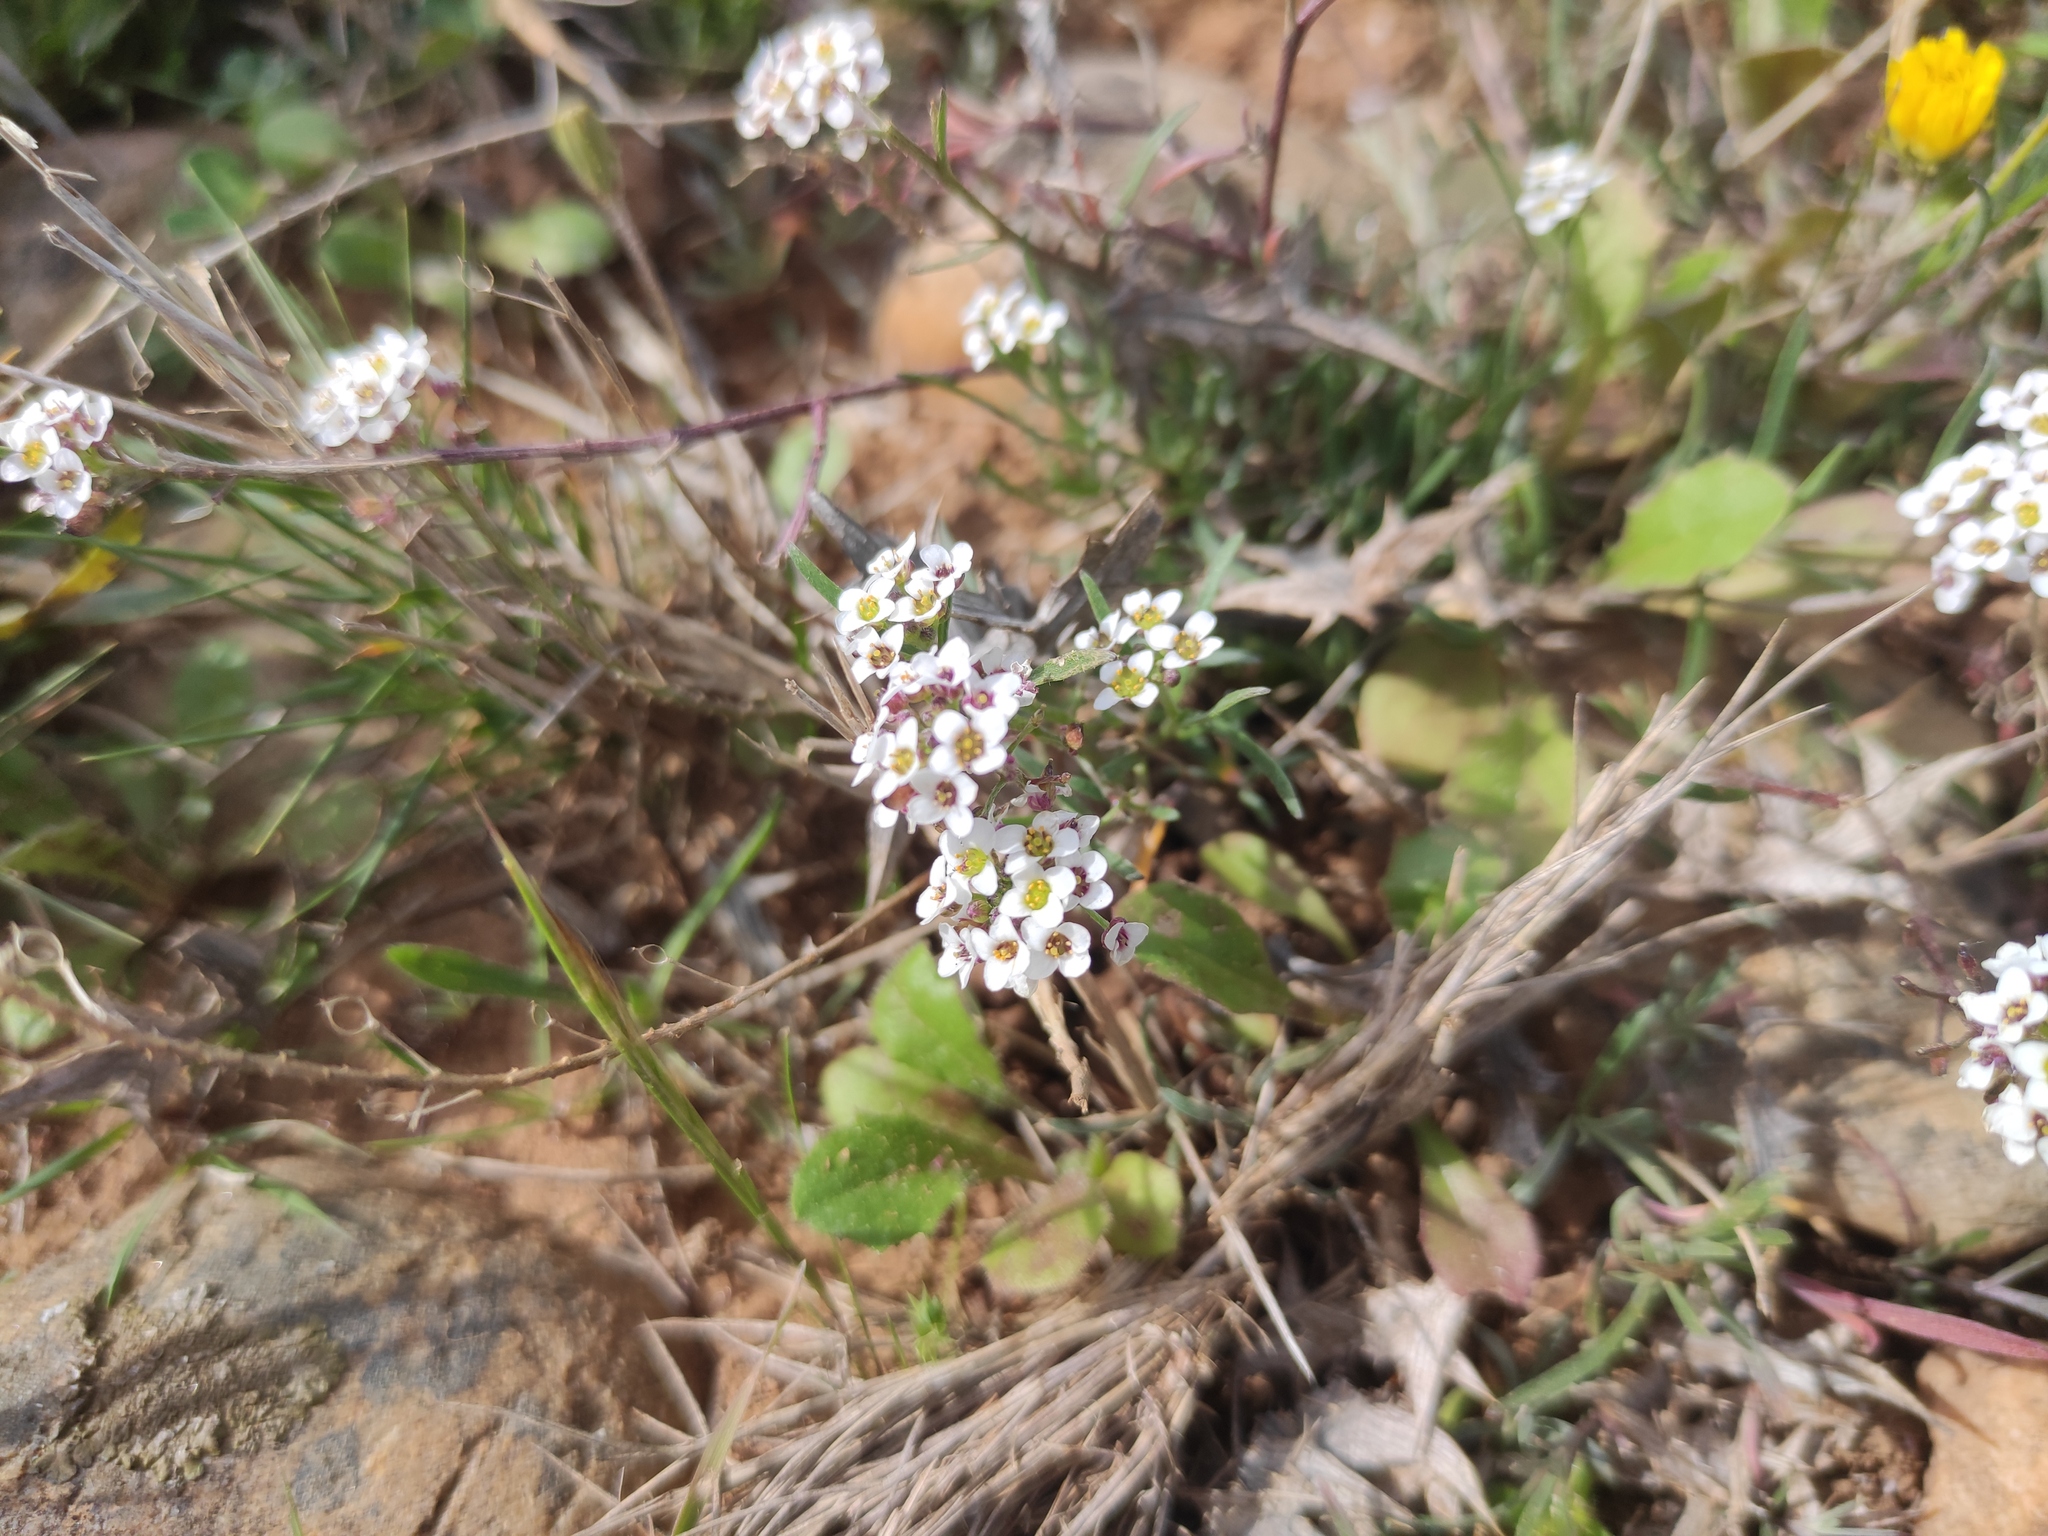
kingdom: Plantae
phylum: Tracheophyta
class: Magnoliopsida
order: Brassicales
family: Brassicaceae
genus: Lobularia
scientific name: Lobularia maritima
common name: Sweet alison
